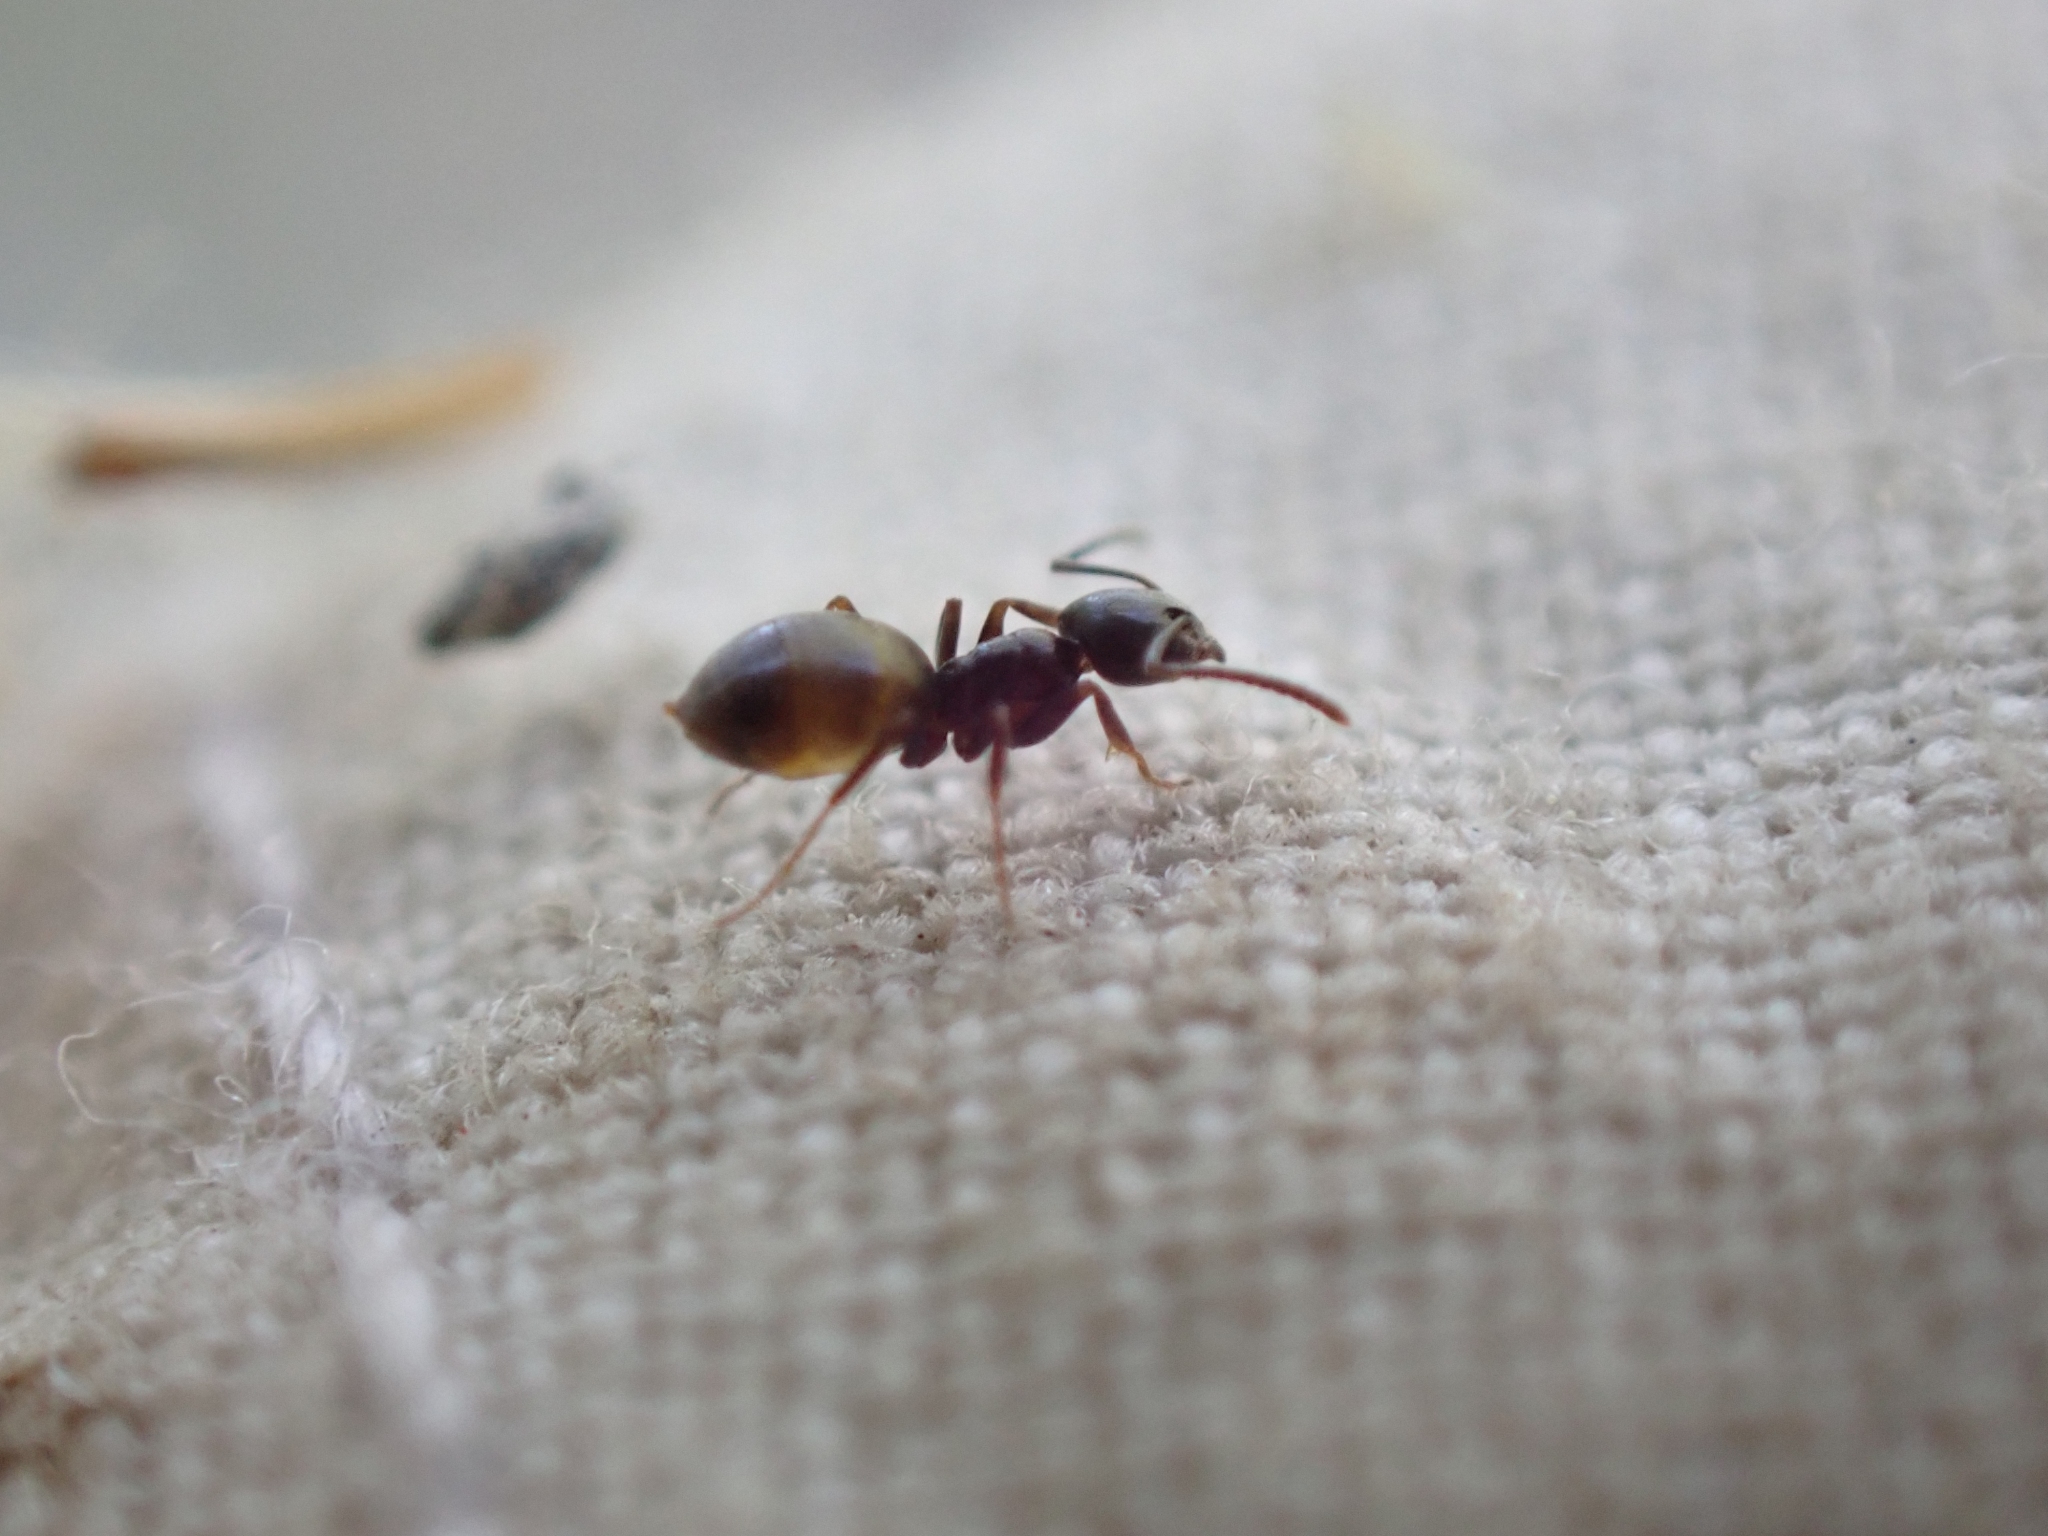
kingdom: Animalia
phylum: Arthropoda
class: Insecta
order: Hymenoptera
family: Formicidae
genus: Tapinoma
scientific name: Tapinoma sessile
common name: Odorous house ant
